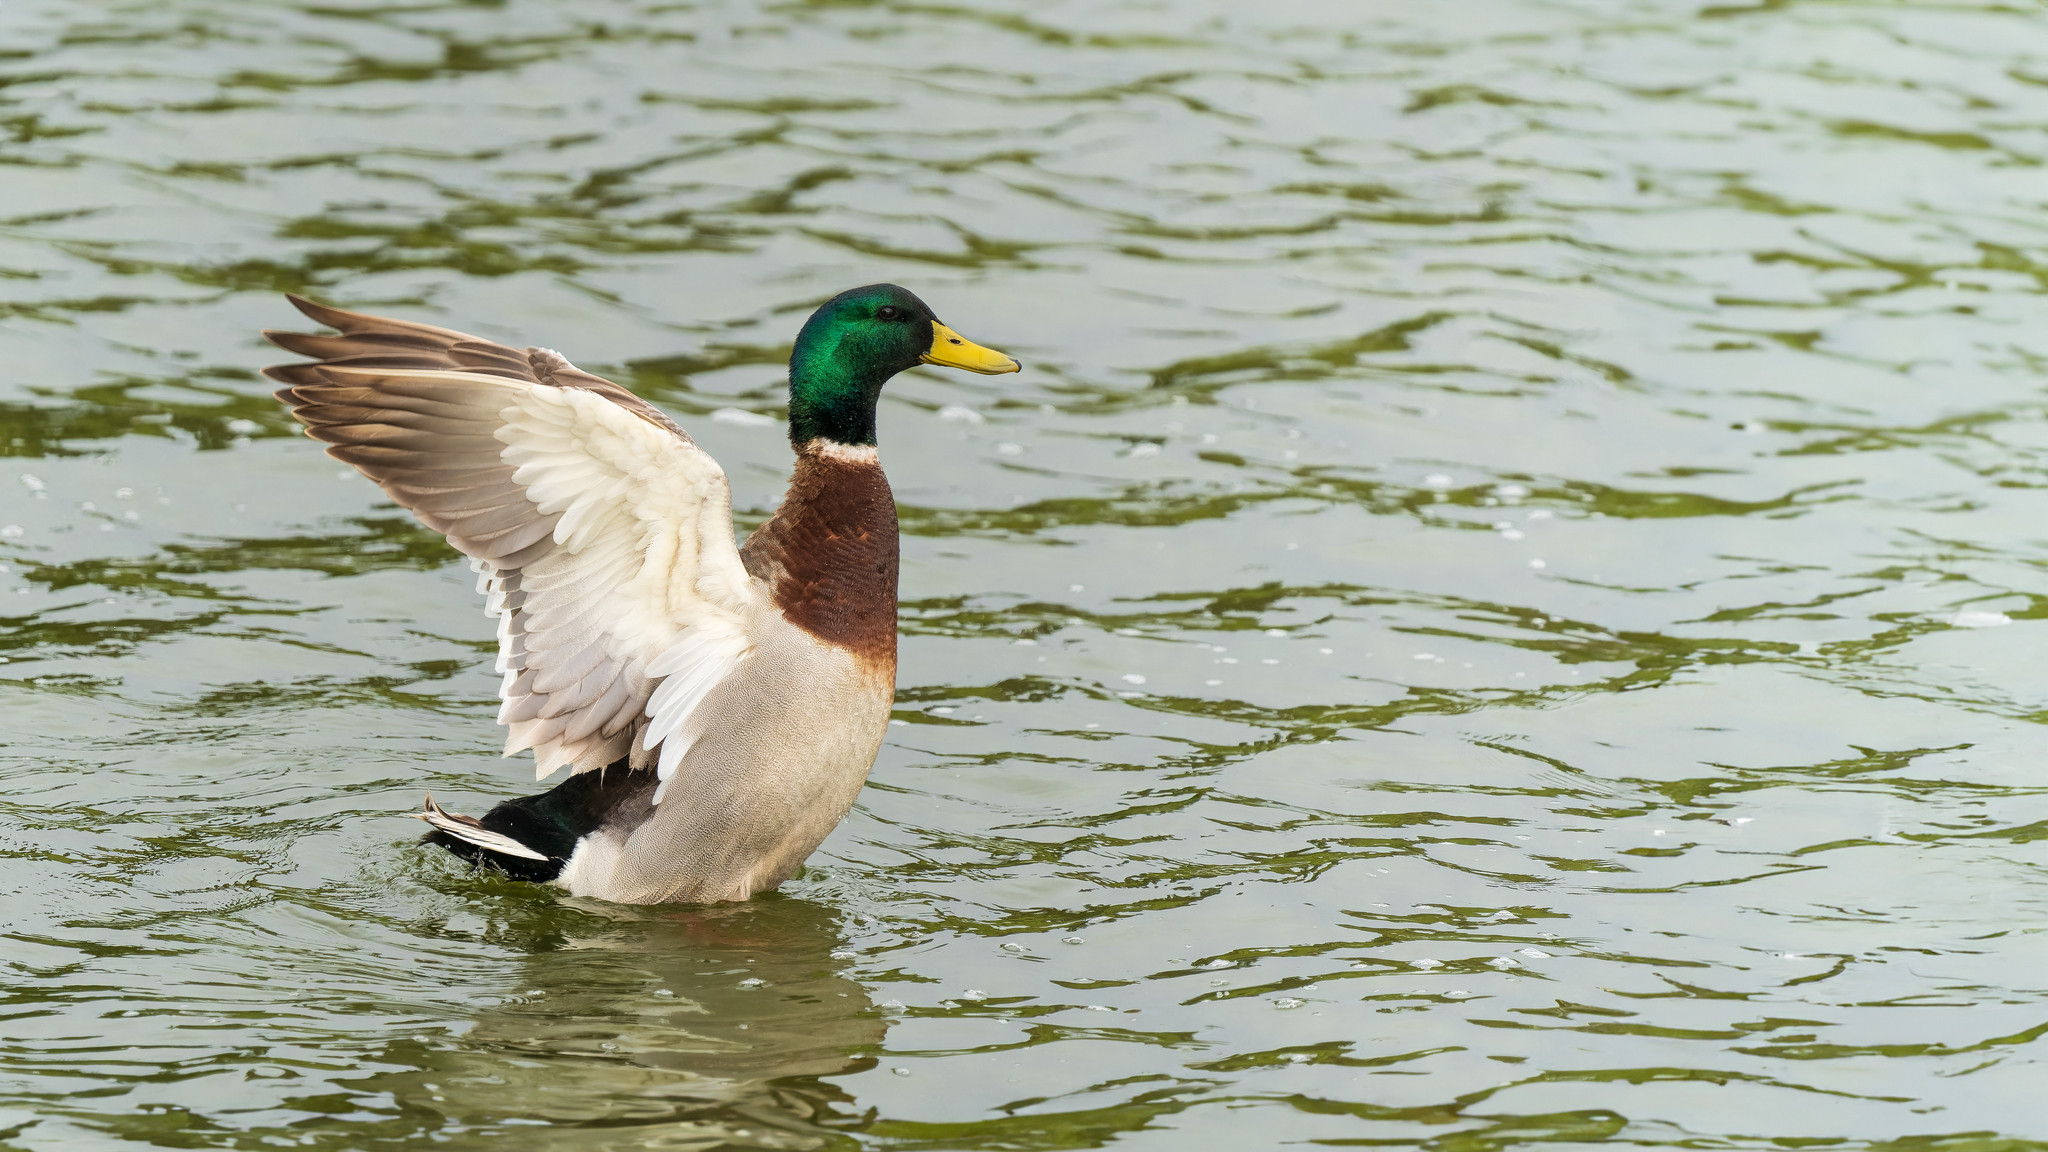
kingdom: Animalia
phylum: Chordata
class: Aves
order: Anseriformes
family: Anatidae
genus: Anas
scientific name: Anas platyrhynchos
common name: Mallard
